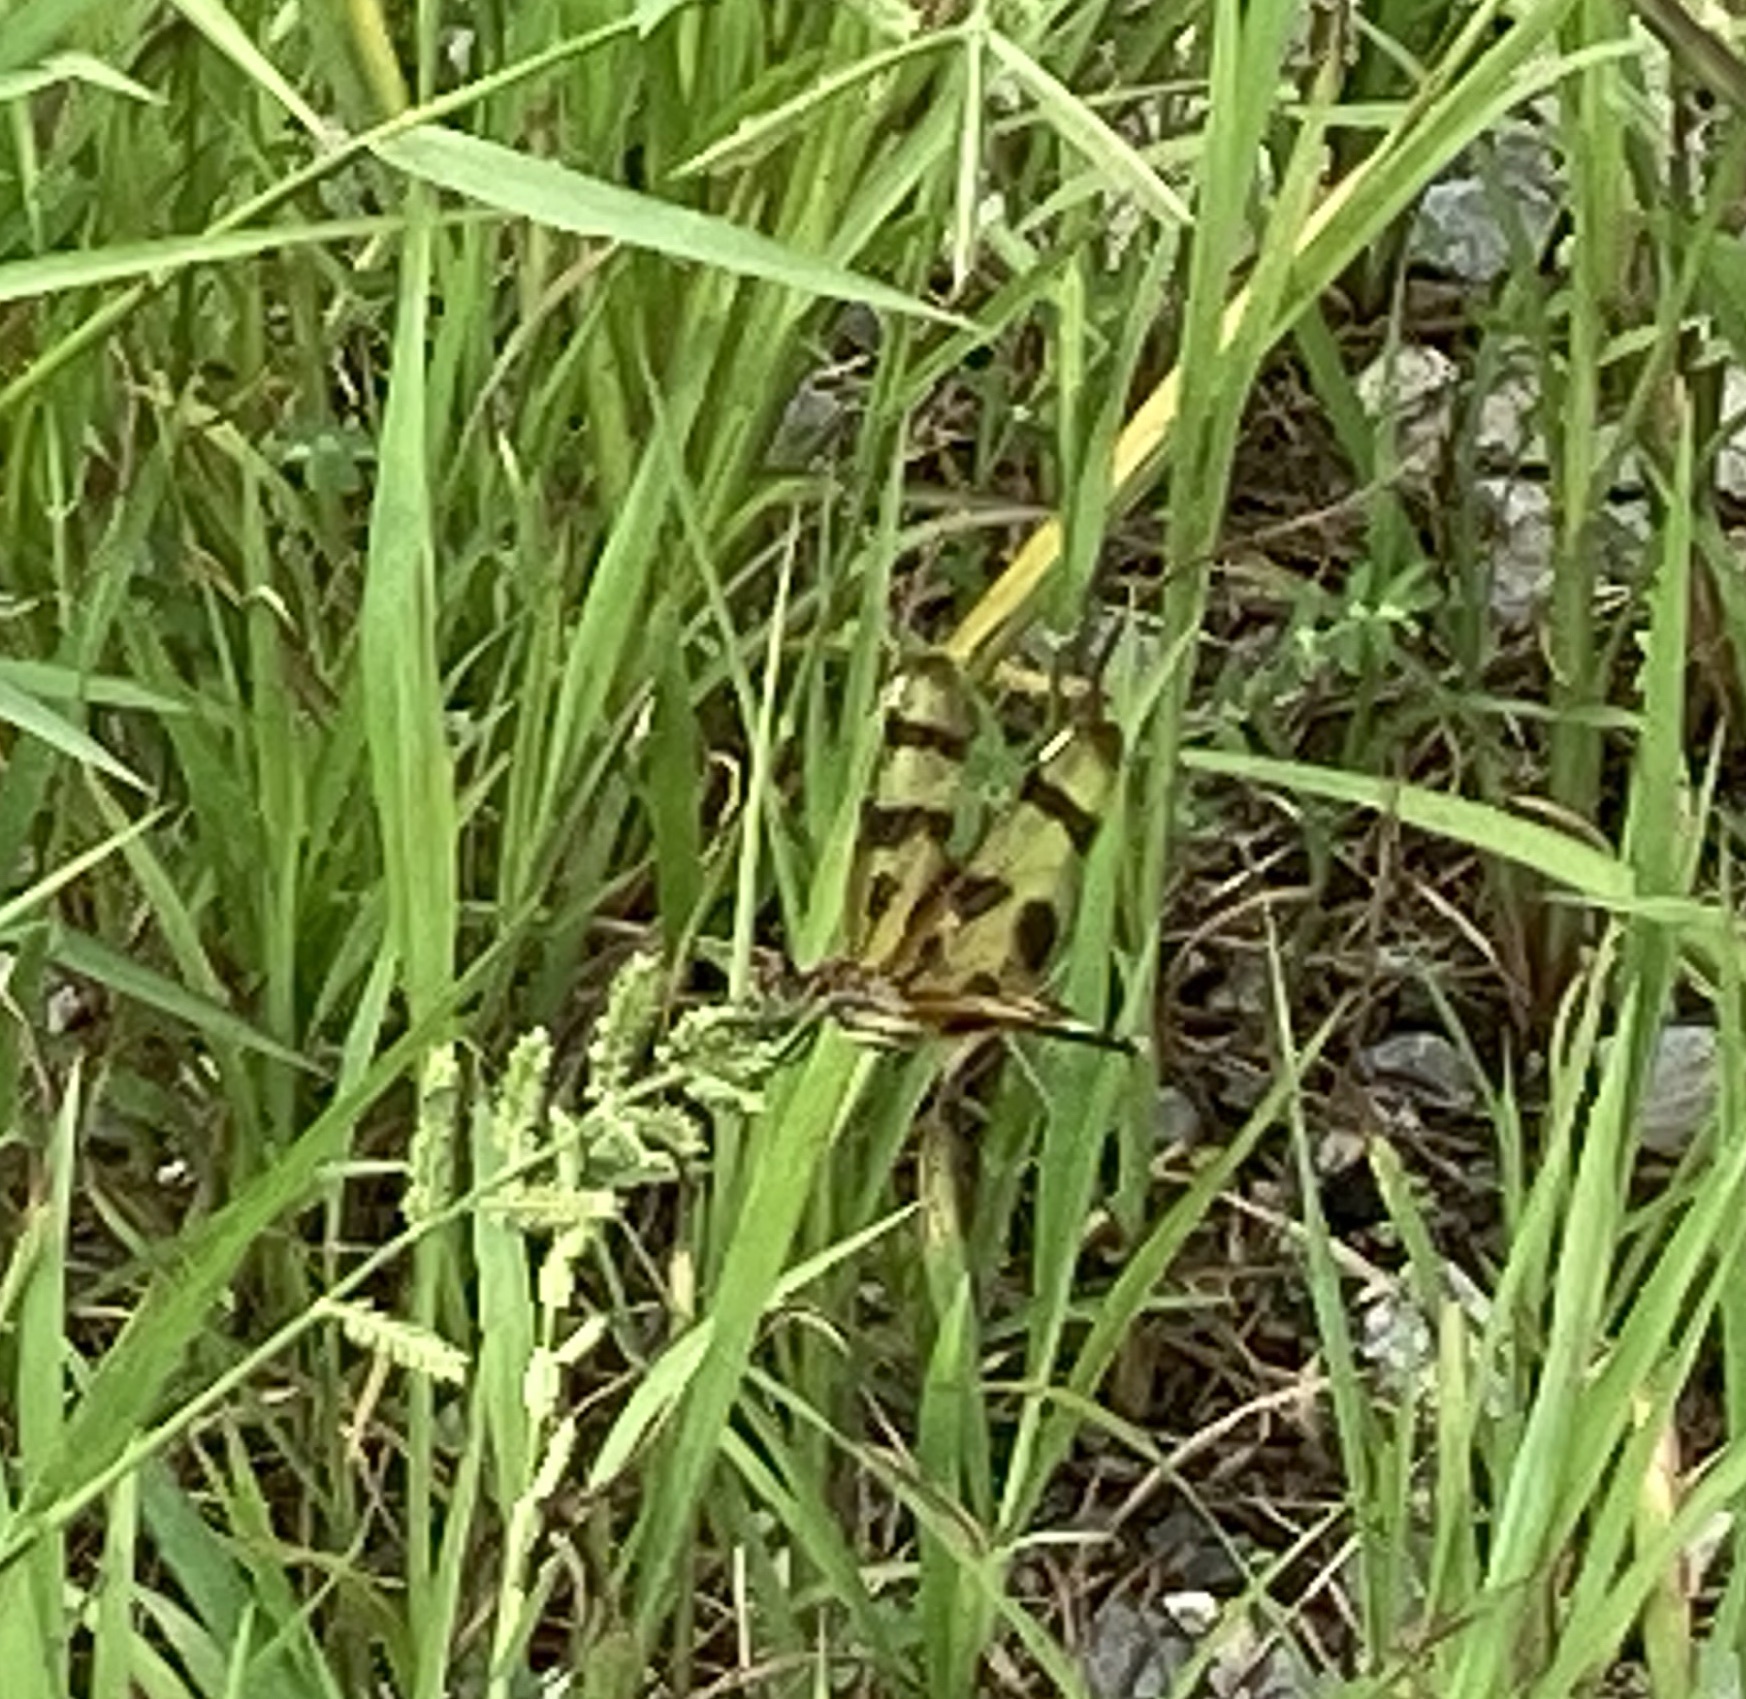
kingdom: Animalia
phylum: Arthropoda
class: Insecta
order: Odonata
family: Libellulidae
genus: Celithemis
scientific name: Celithemis eponina
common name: Halloween pennant
